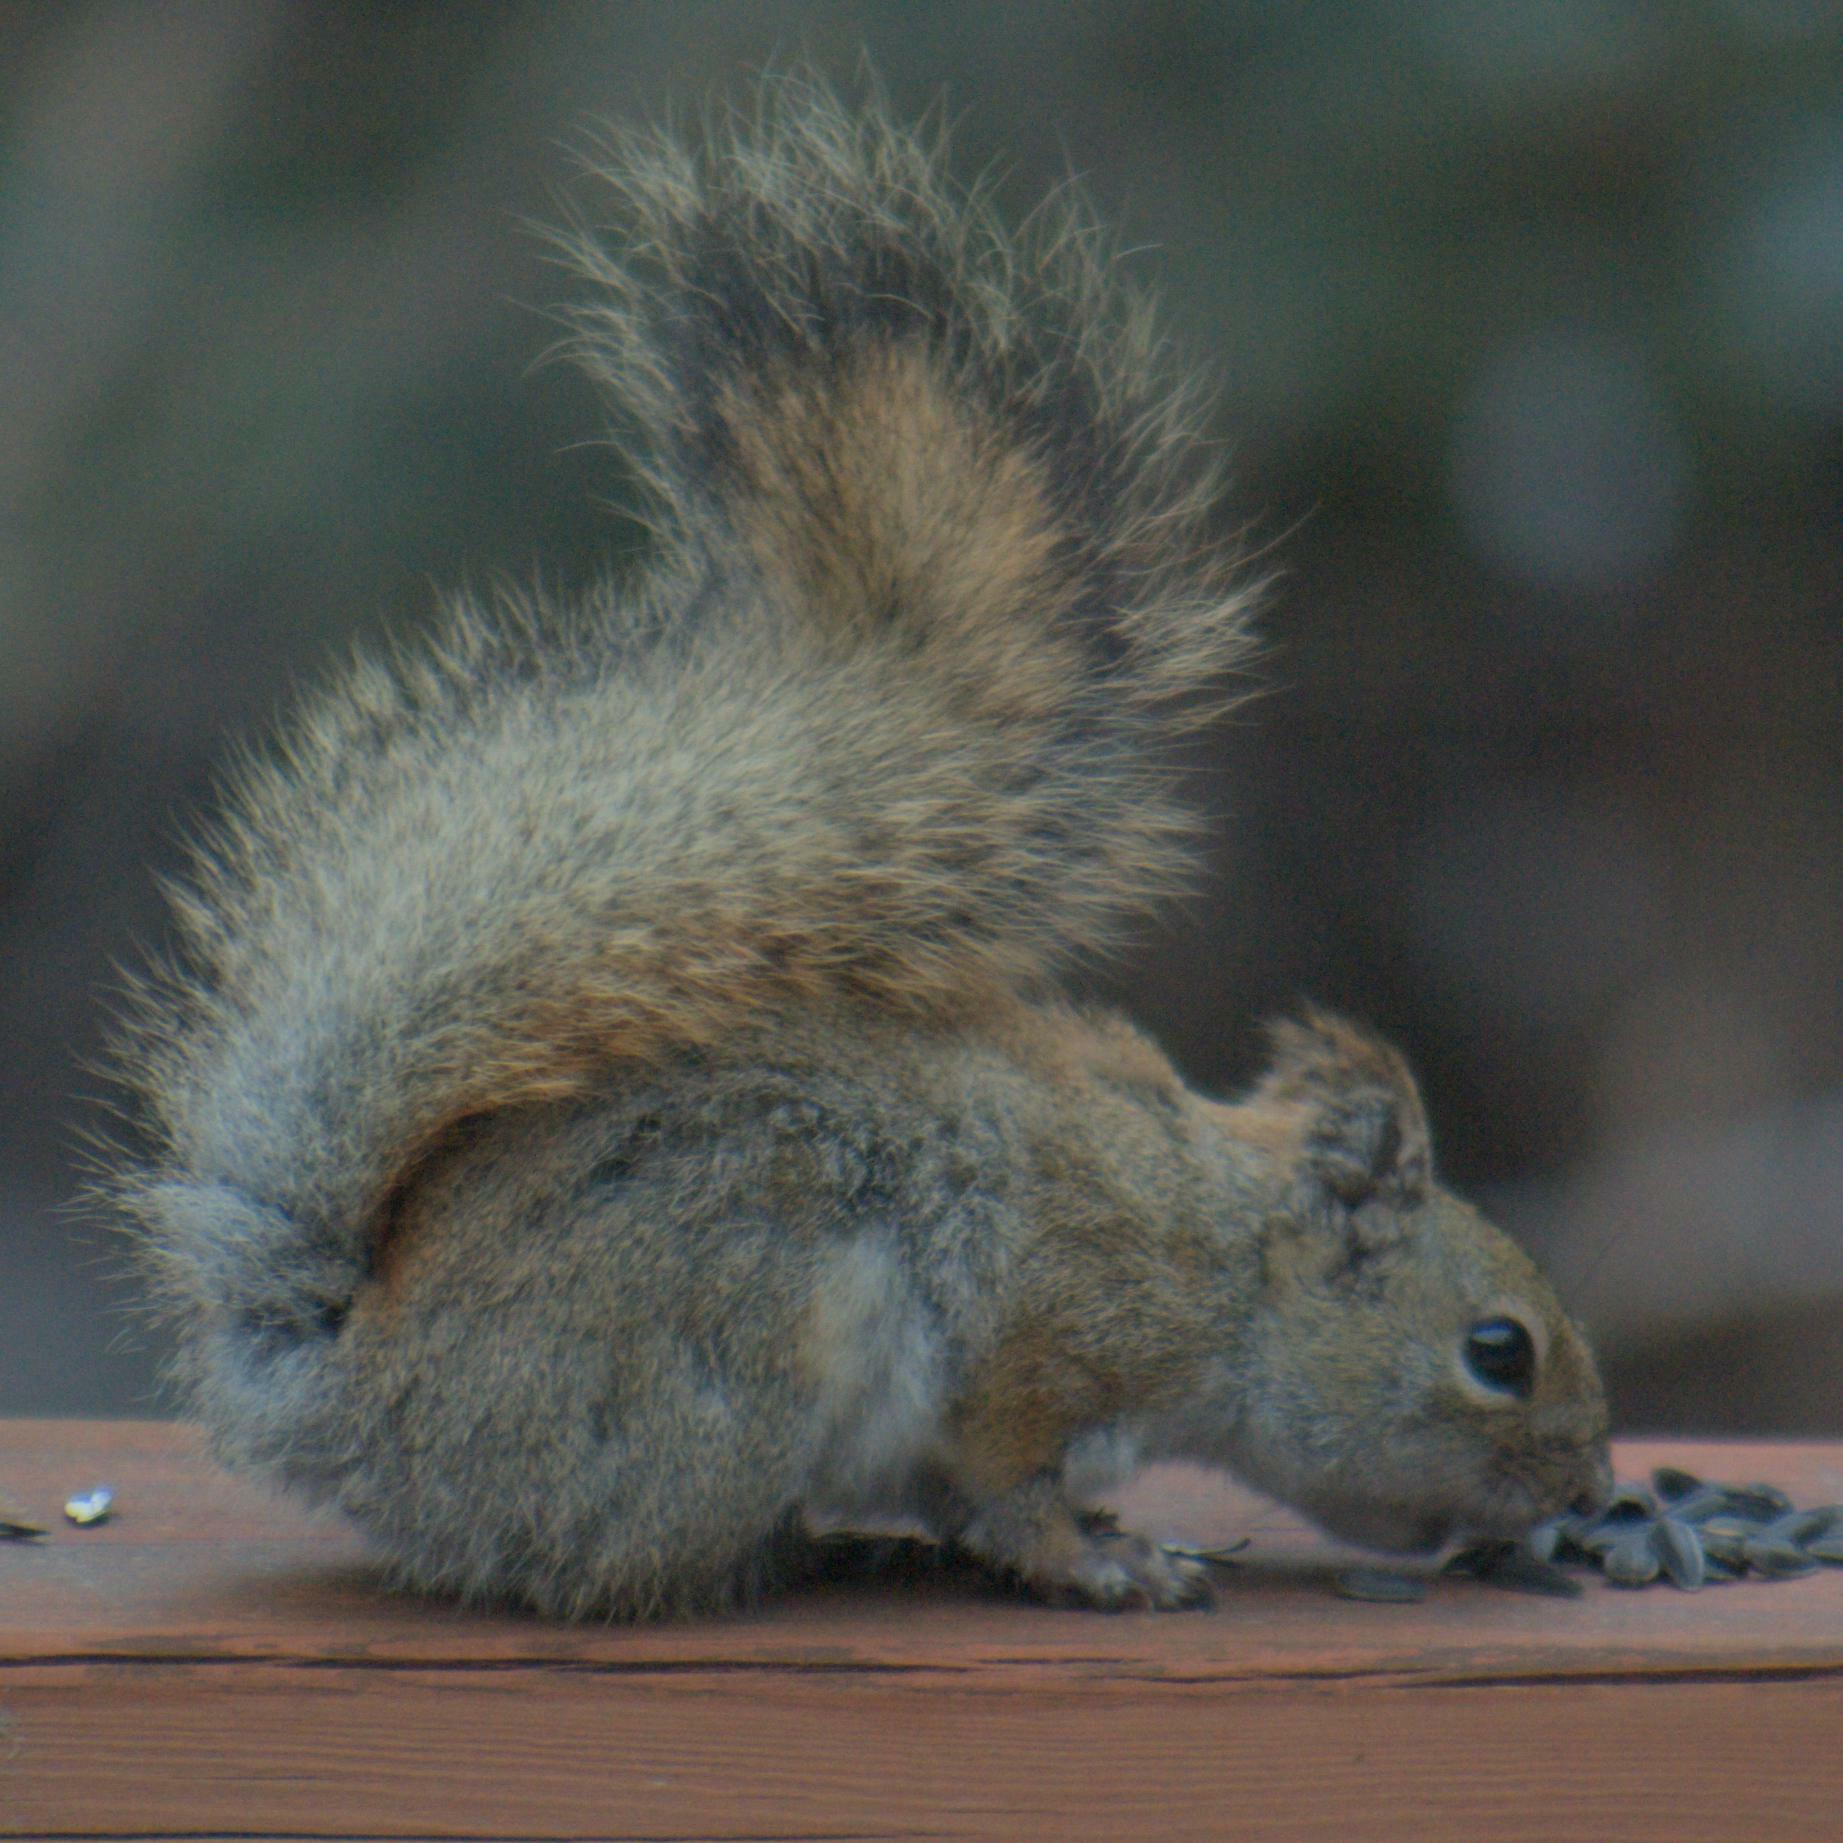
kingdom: Animalia
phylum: Chordata
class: Mammalia
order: Rodentia
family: Sciuridae
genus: Tamiasciurus
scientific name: Tamiasciurus hudsonicus
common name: Red squirrel
